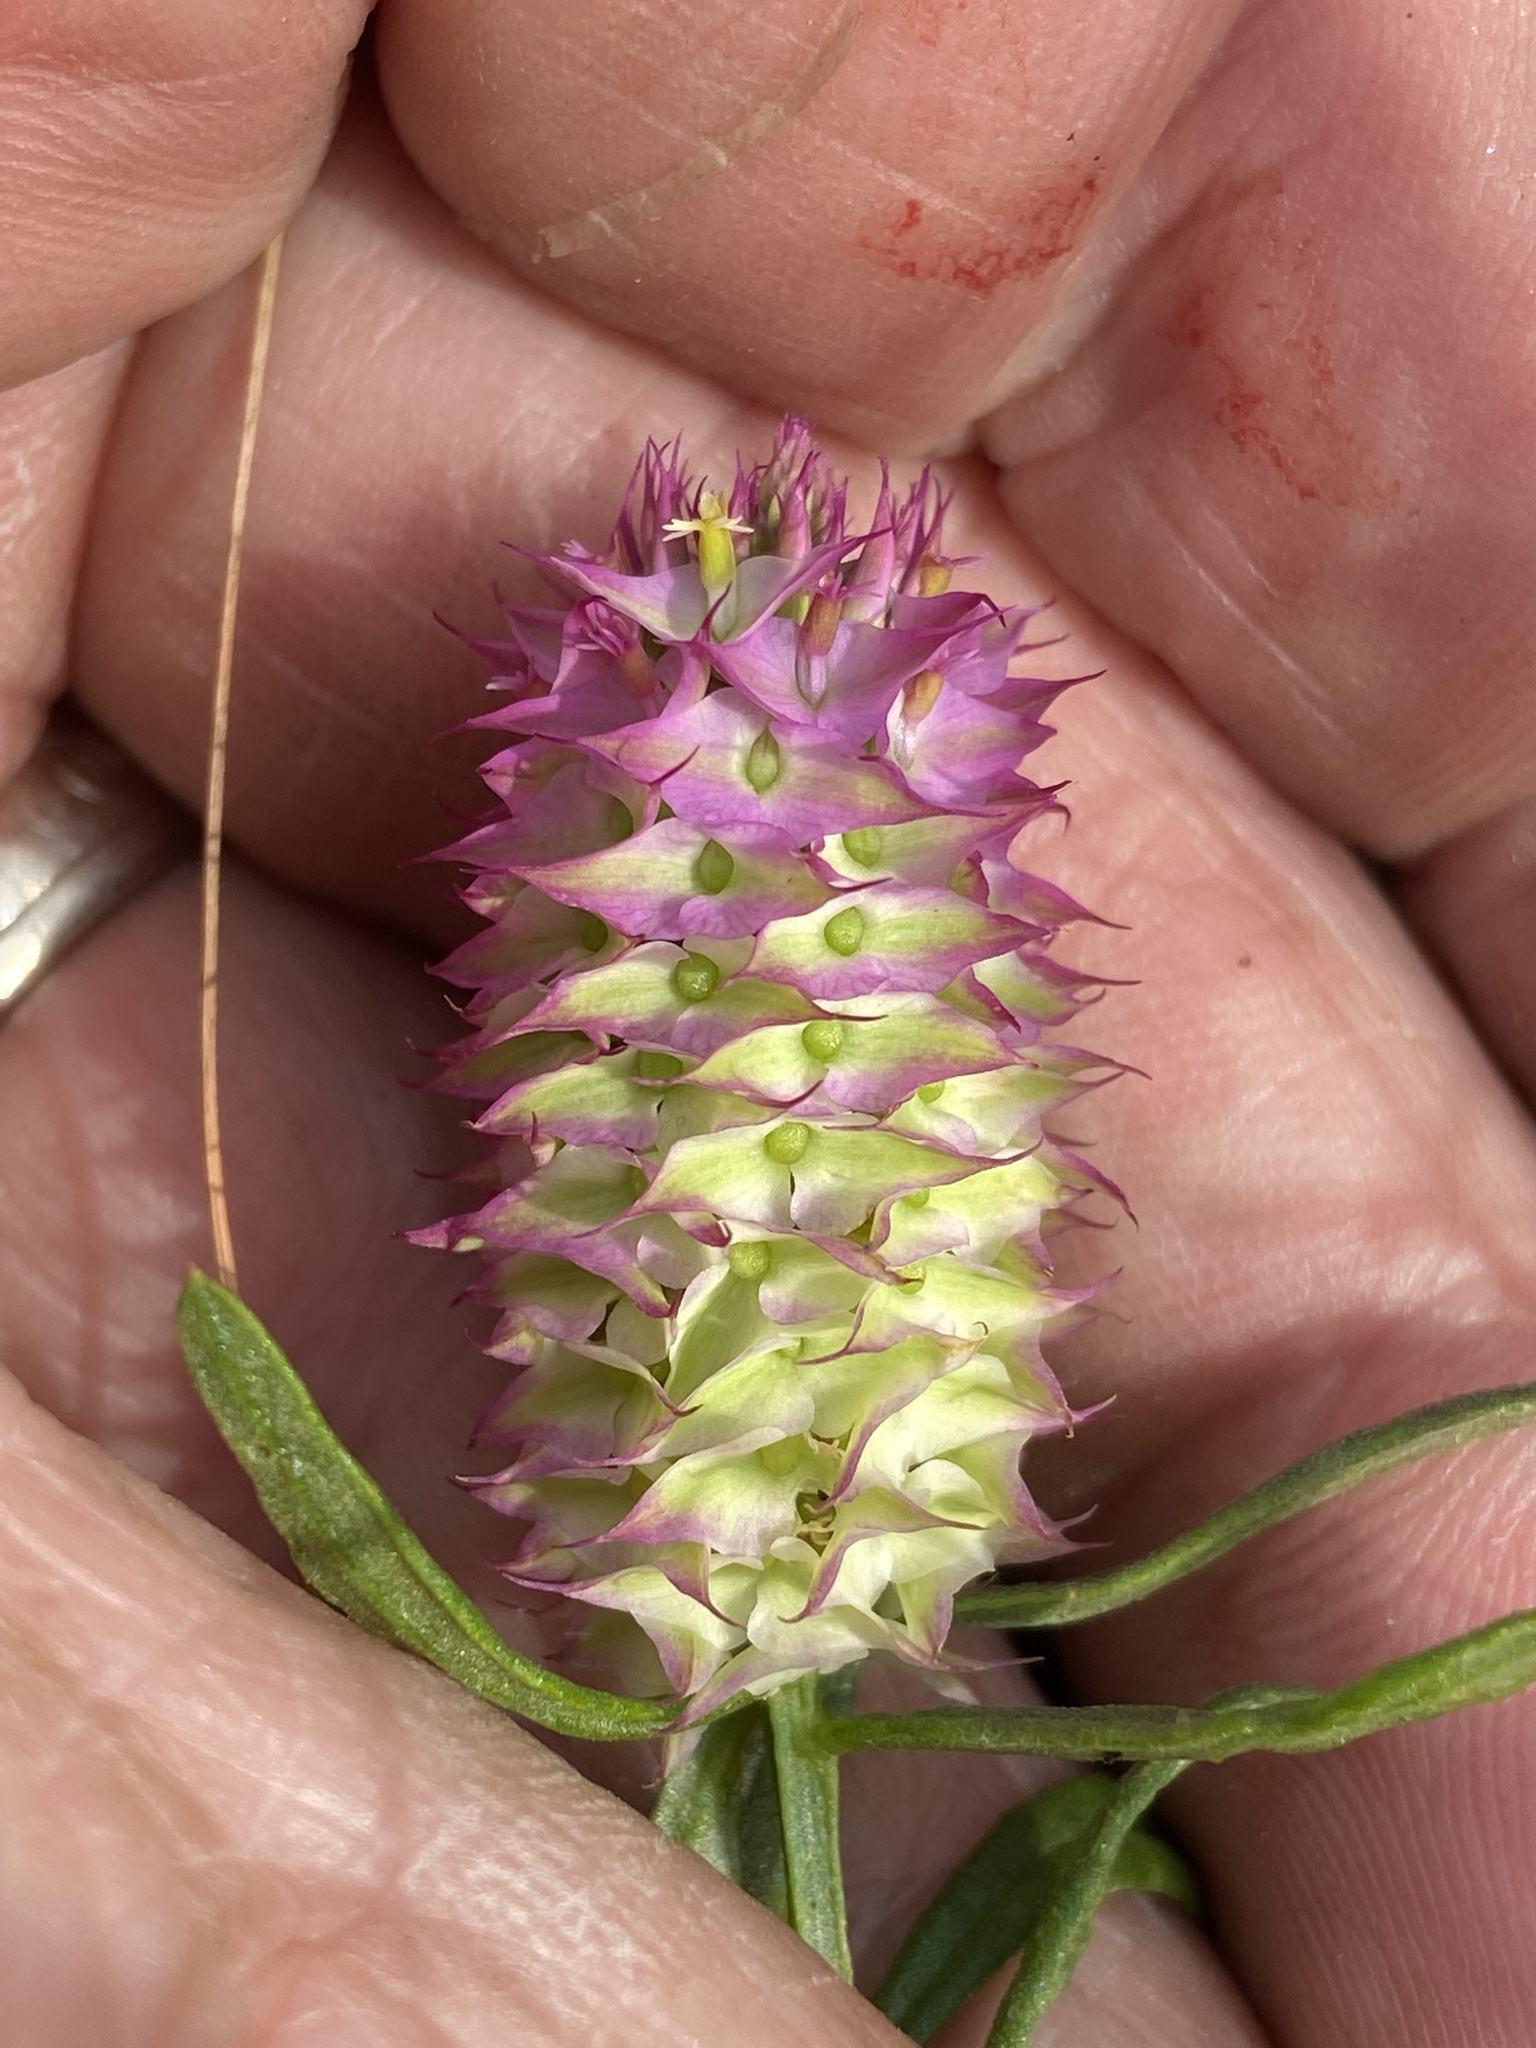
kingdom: Plantae
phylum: Tracheophyta
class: Magnoliopsida
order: Fabales
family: Polygalaceae
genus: Polygala
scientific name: Polygala cruciata
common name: Drumheads
